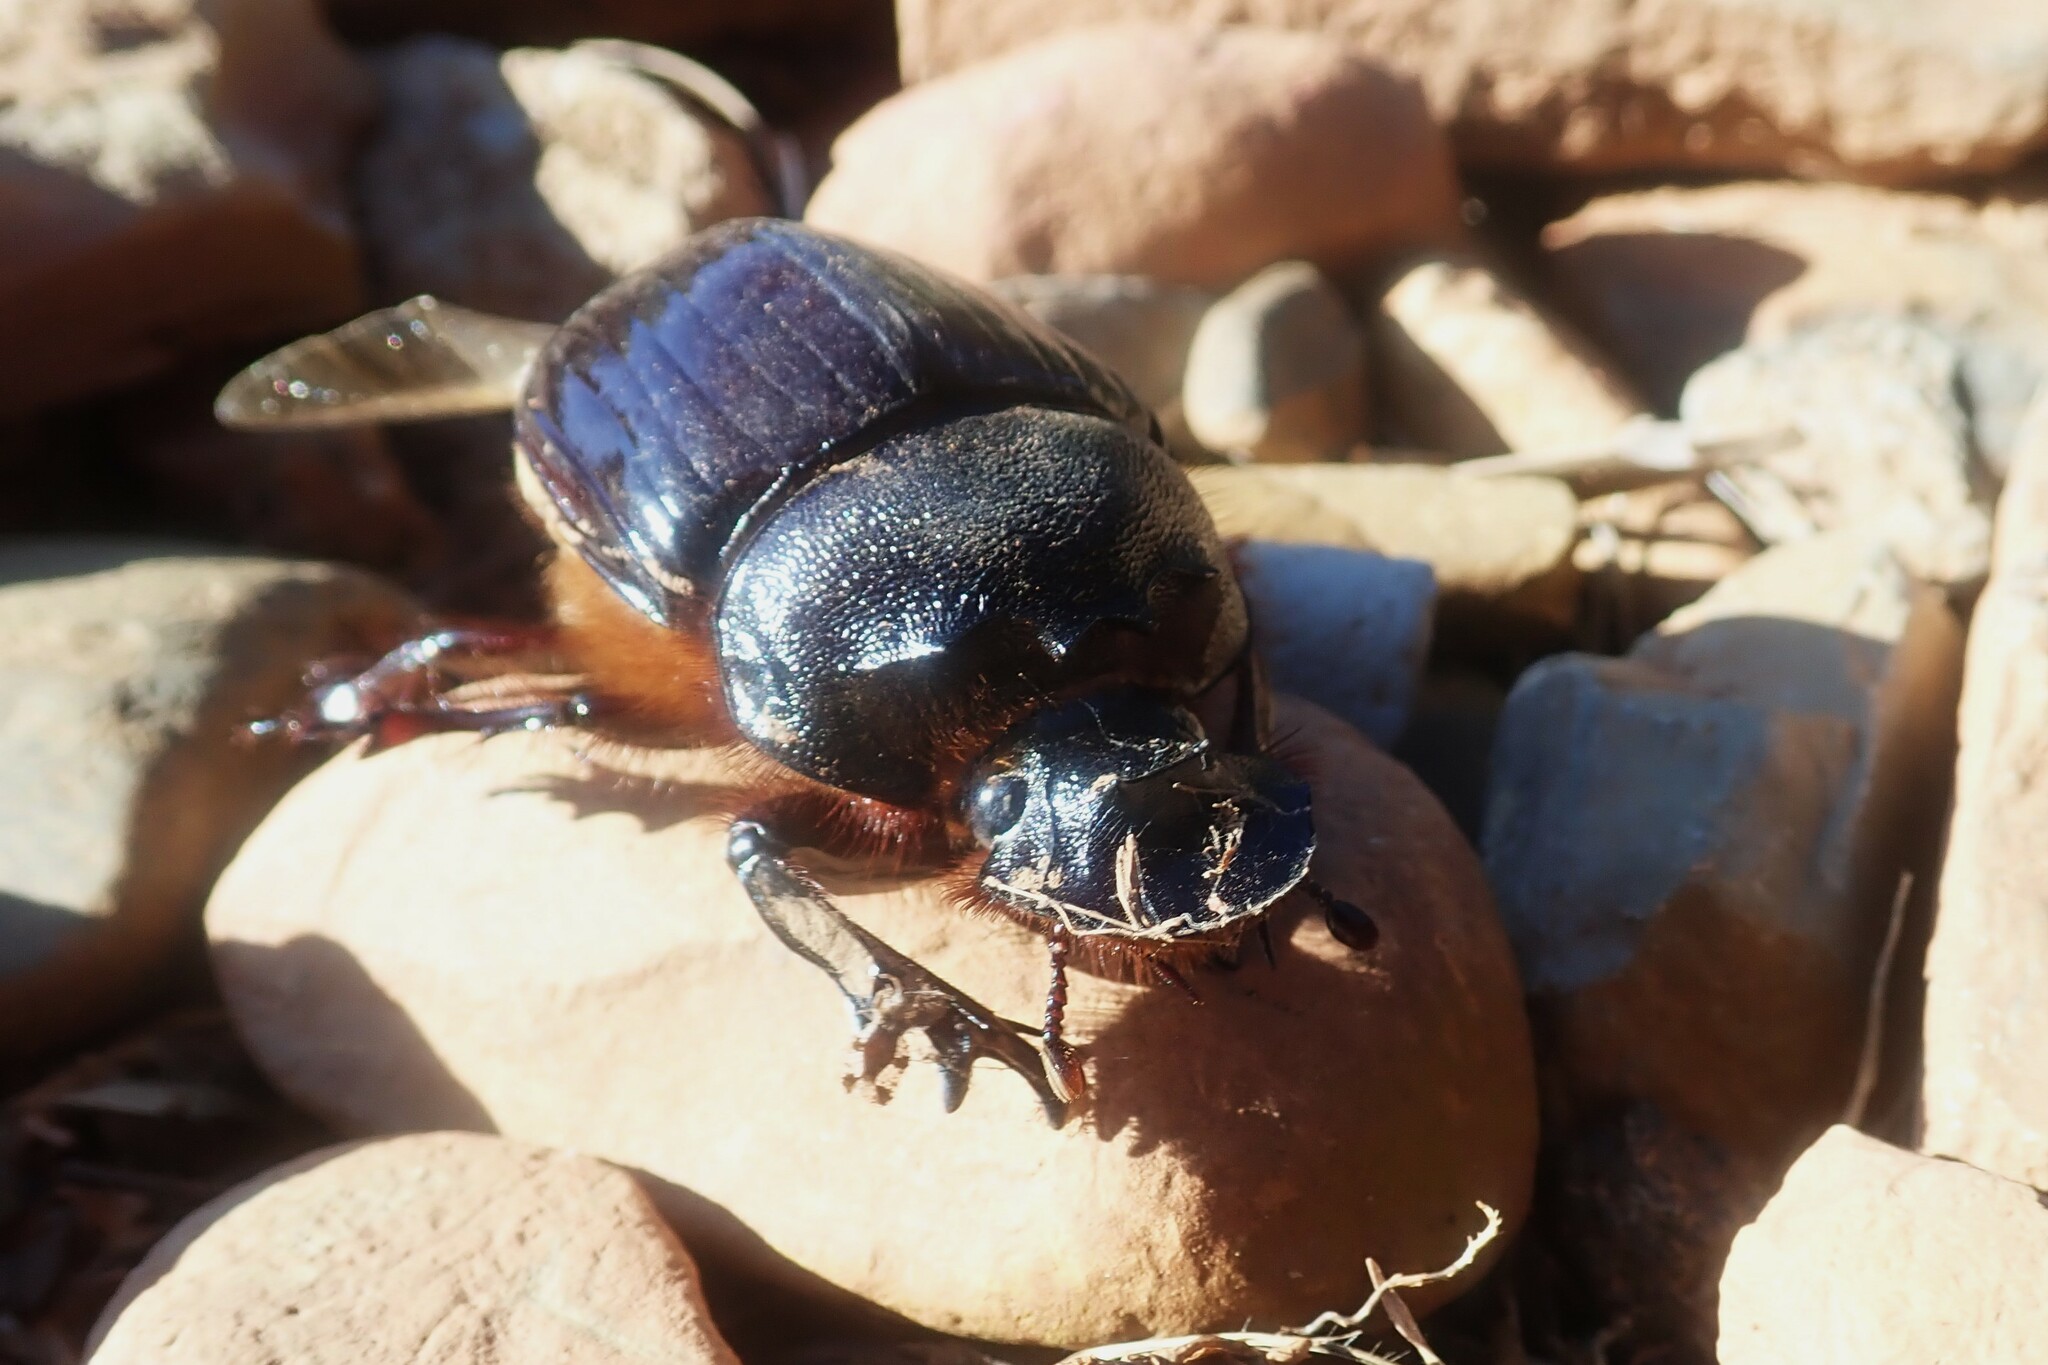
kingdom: Animalia
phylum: Arthropoda
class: Insecta
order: Coleoptera
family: Scarabaeidae
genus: Heliocopris
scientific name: Heliocopris letiranti
